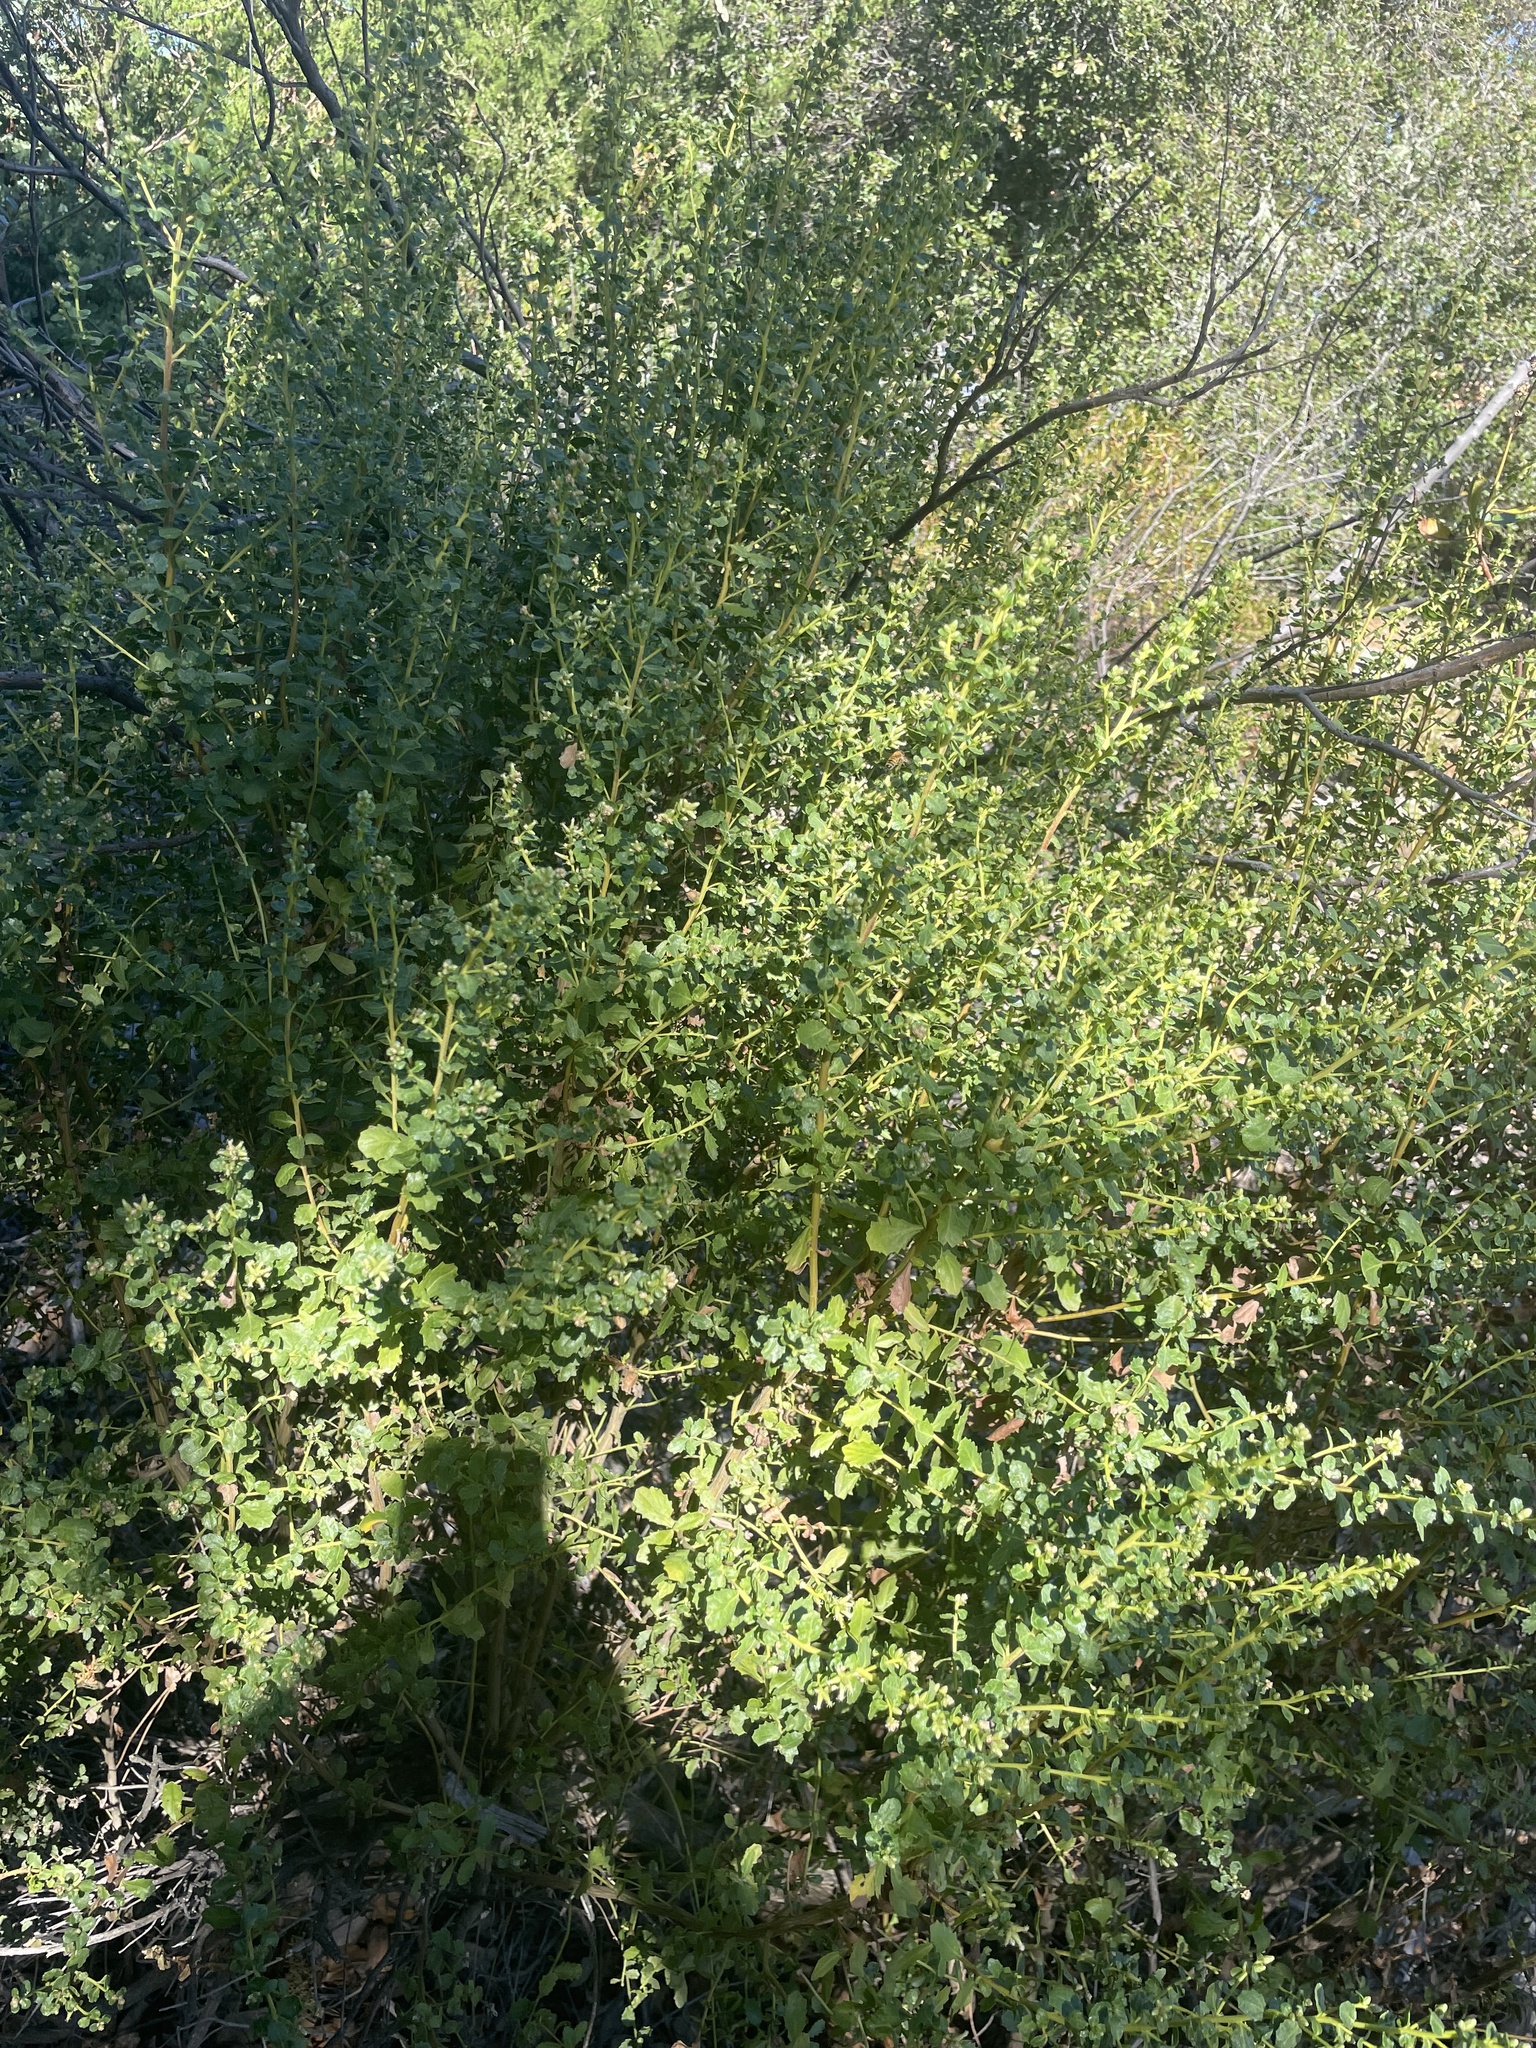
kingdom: Plantae
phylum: Tracheophyta
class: Magnoliopsida
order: Asterales
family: Asteraceae
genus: Baccharis
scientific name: Baccharis pilularis
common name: Coyotebrush
